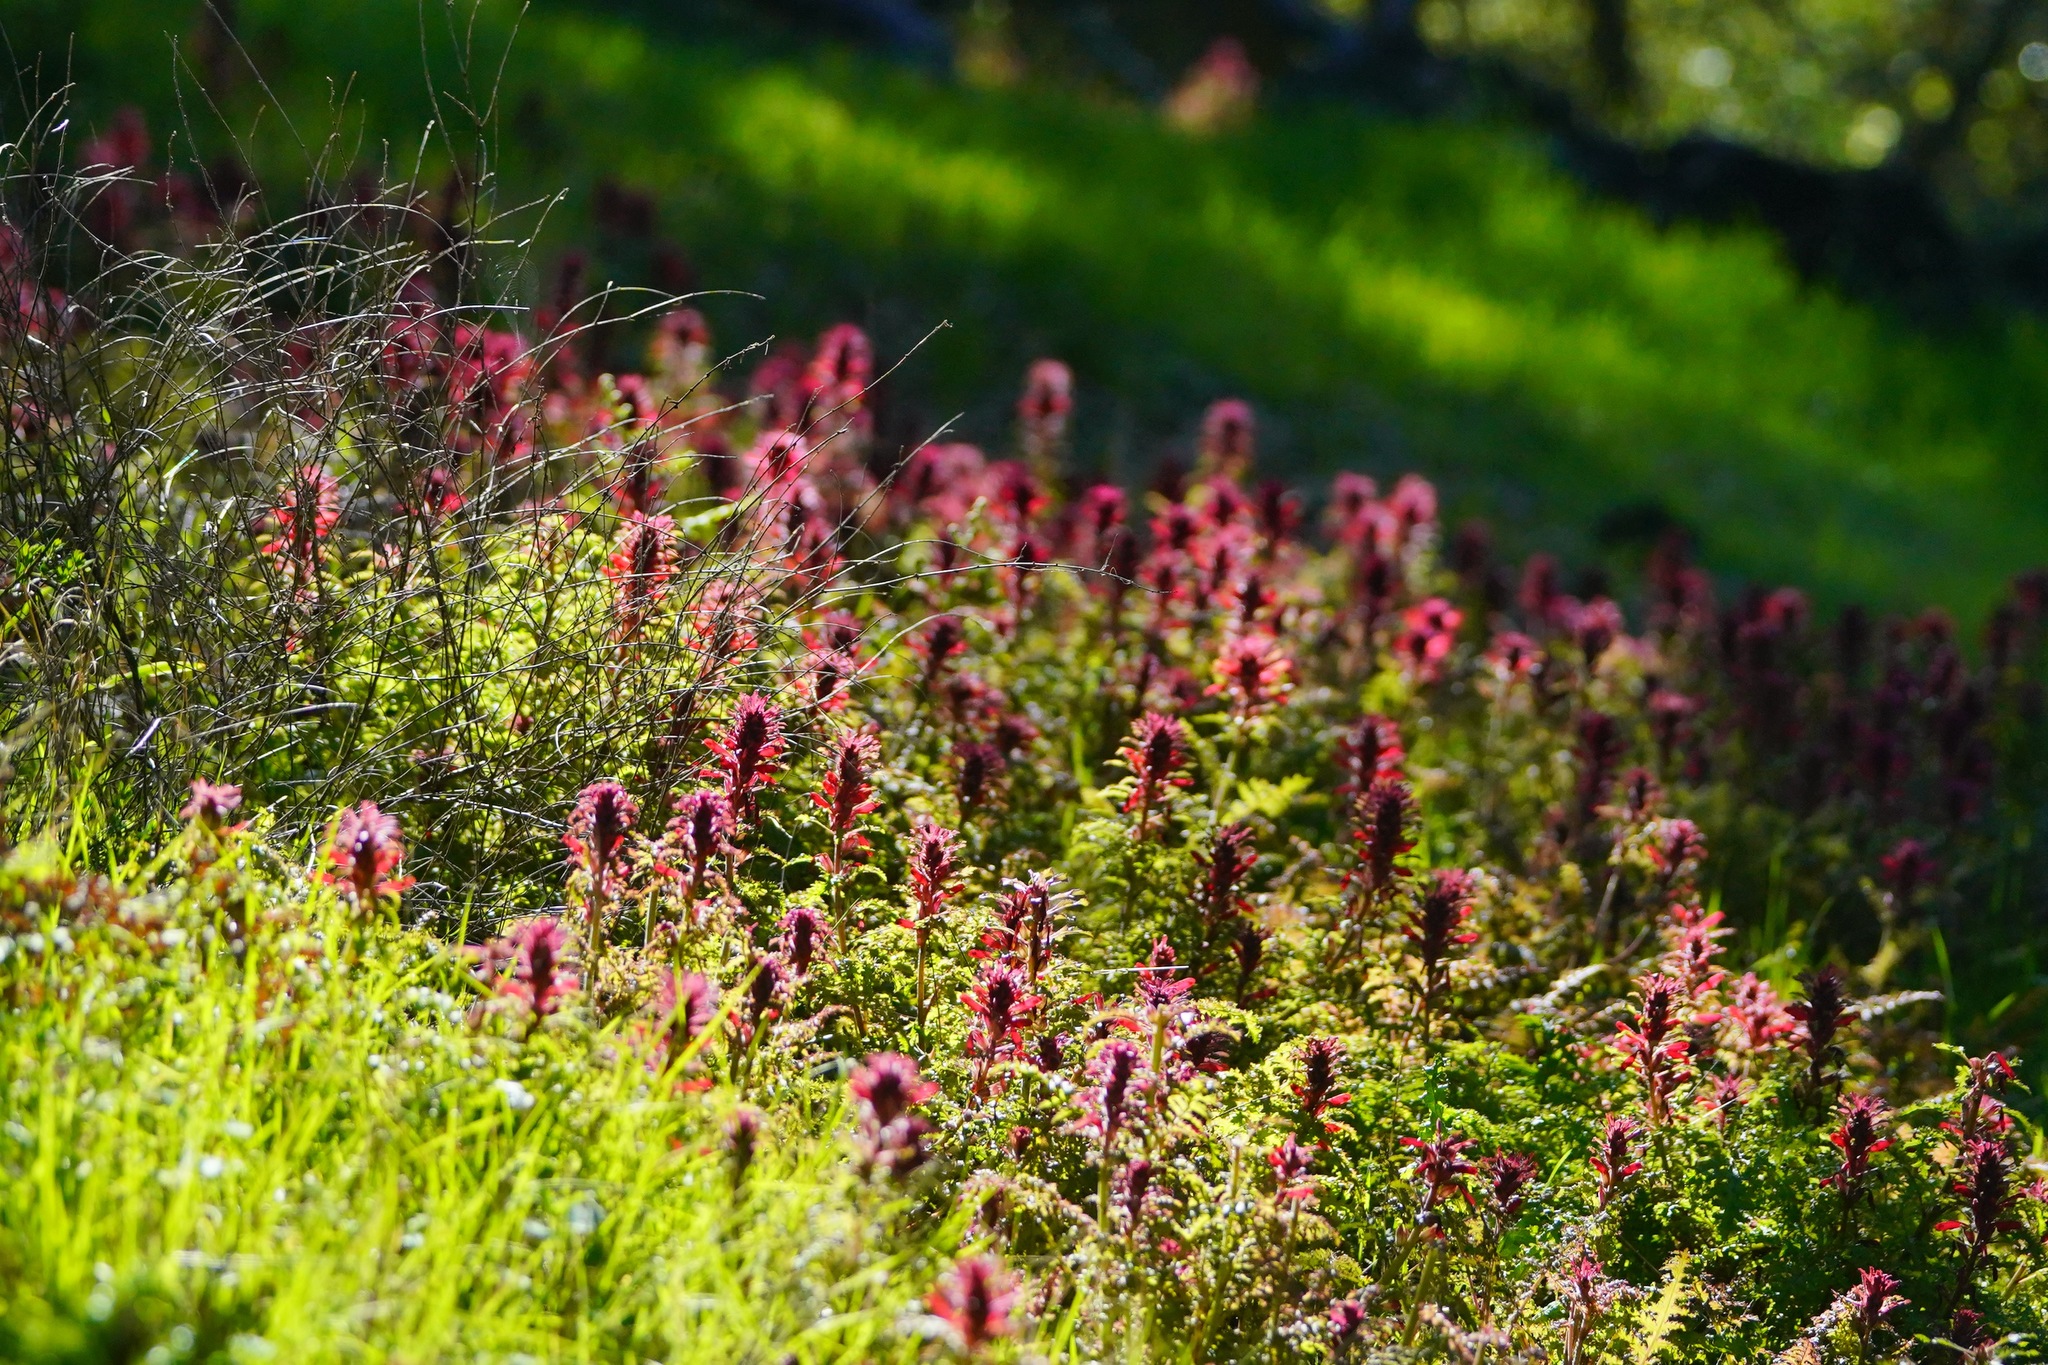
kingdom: Plantae
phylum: Tracheophyta
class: Magnoliopsida
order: Lamiales
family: Orobanchaceae
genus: Pedicularis
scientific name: Pedicularis densiflora
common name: Indian warrior
